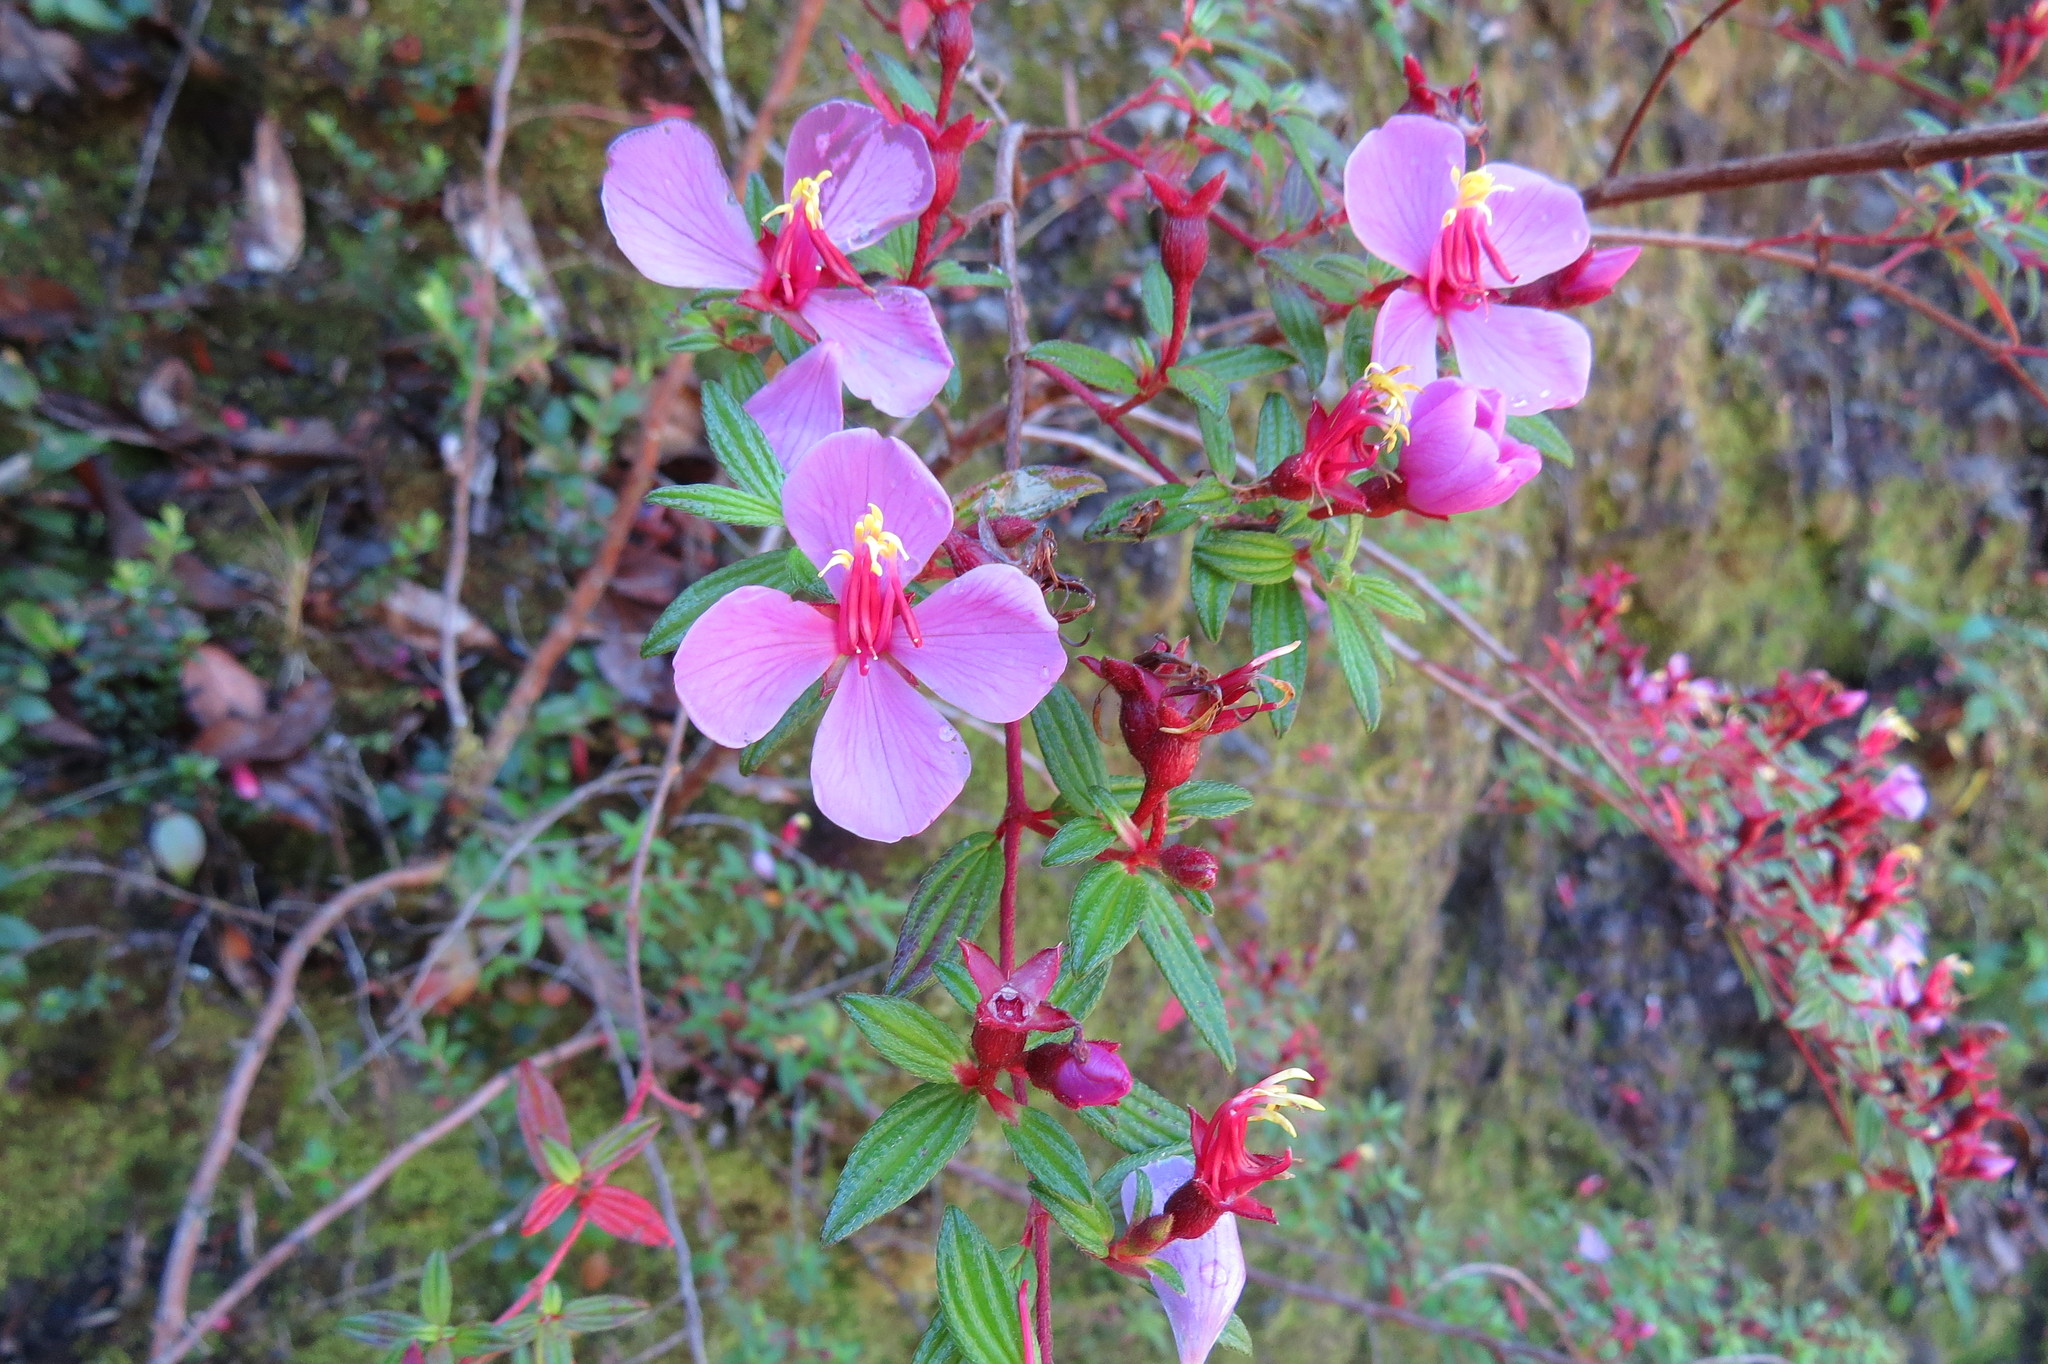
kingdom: Plantae
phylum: Tracheophyta
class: Magnoliopsida
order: Myrtales
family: Melastomataceae
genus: Monochaetum
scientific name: Monochaetum vulcanicum
